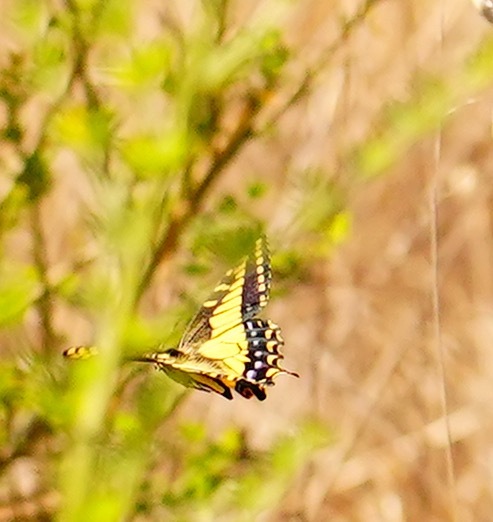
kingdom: Animalia
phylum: Arthropoda
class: Insecta
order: Lepidoptera
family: Papilionidae
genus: Papilio
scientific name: Papilio zelicaon
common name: Anise swallowtail
